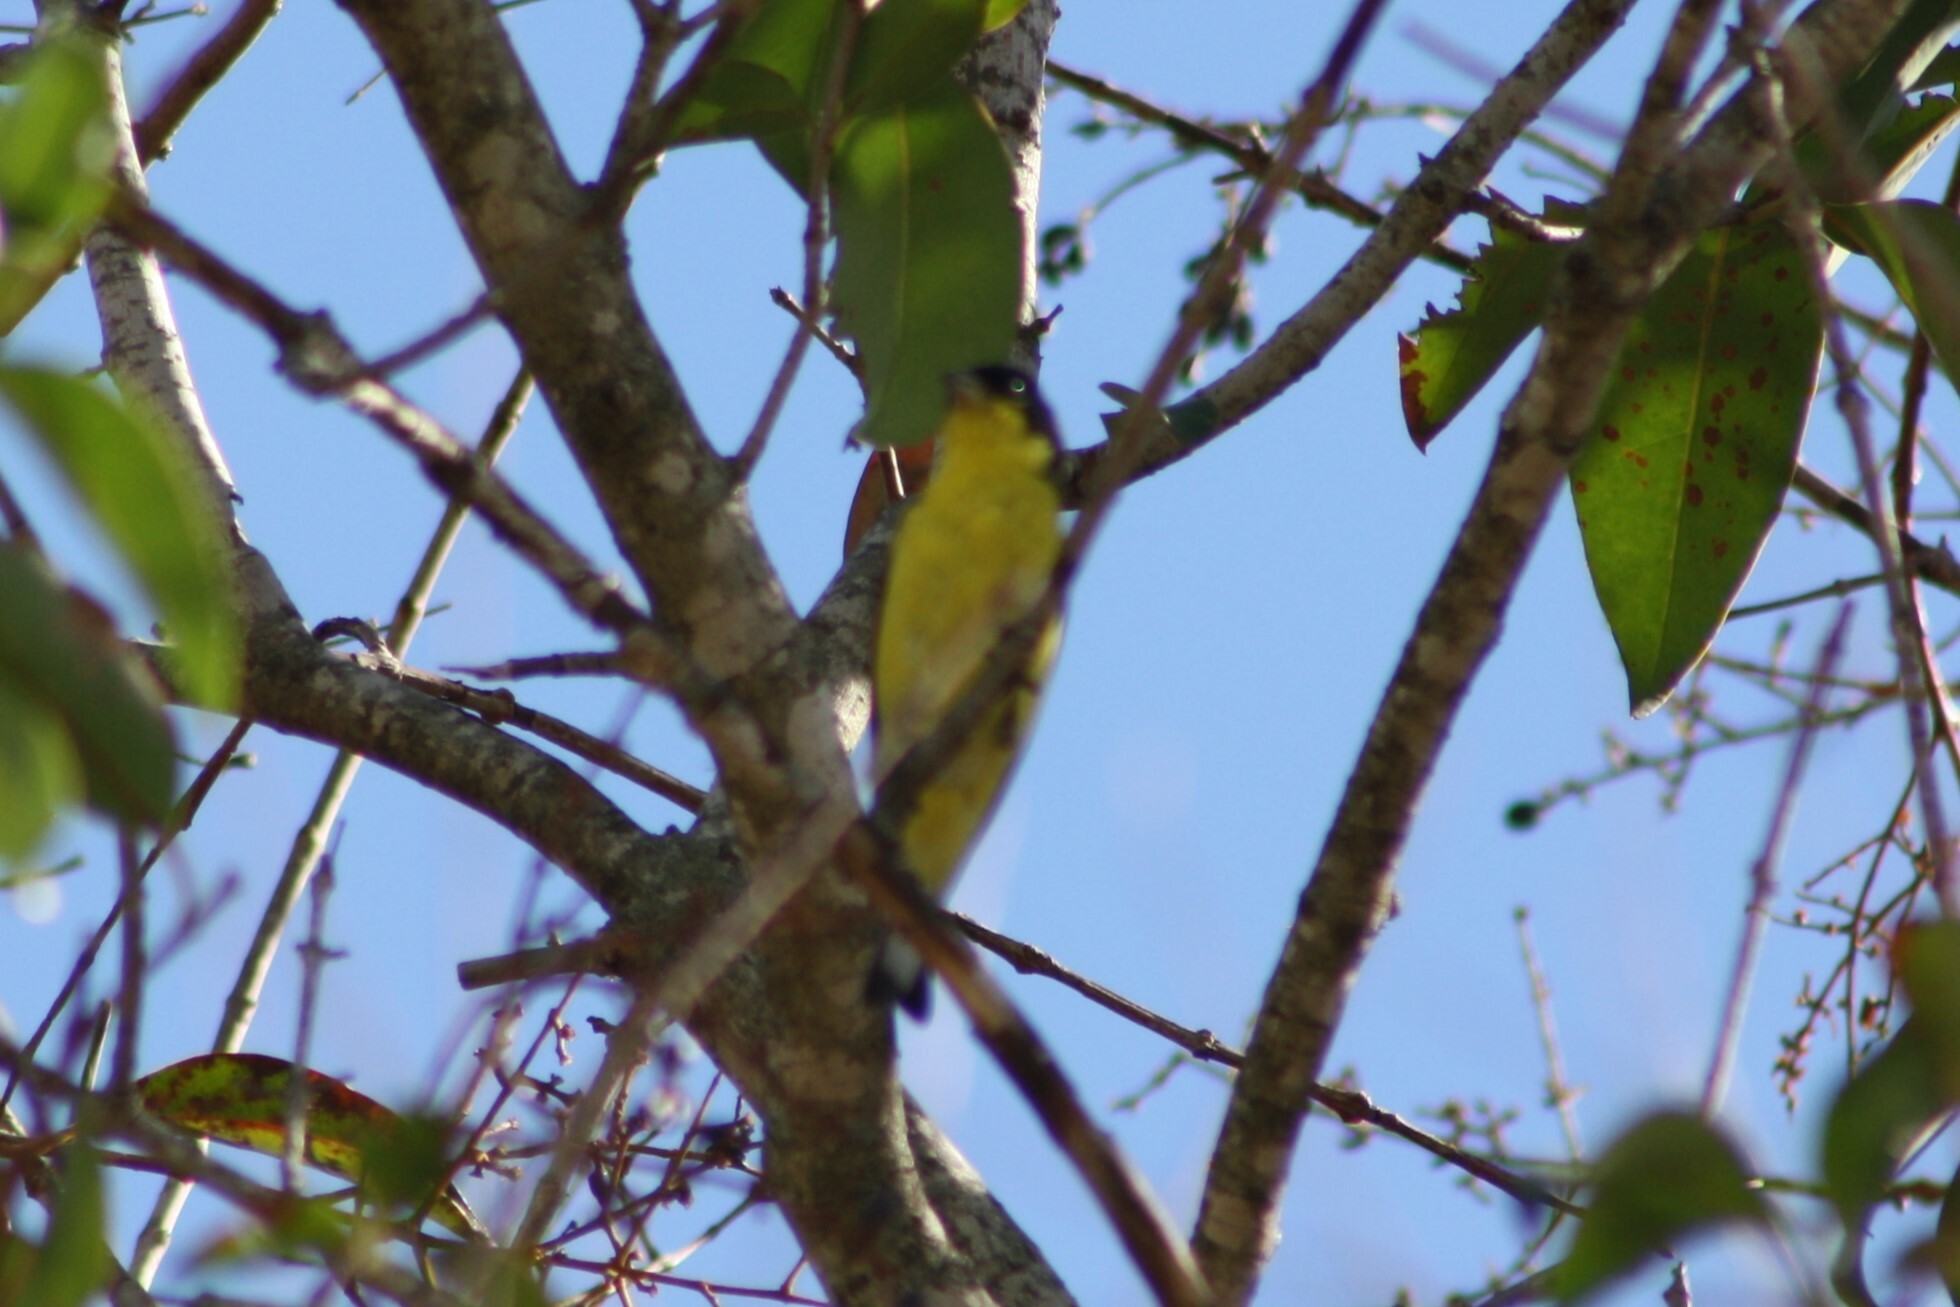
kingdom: Animalia
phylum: Chordata
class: Aves
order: Passeriformes
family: Fringillidae
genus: Spinus
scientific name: Spinus psaltria
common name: Lesser goldfinch
